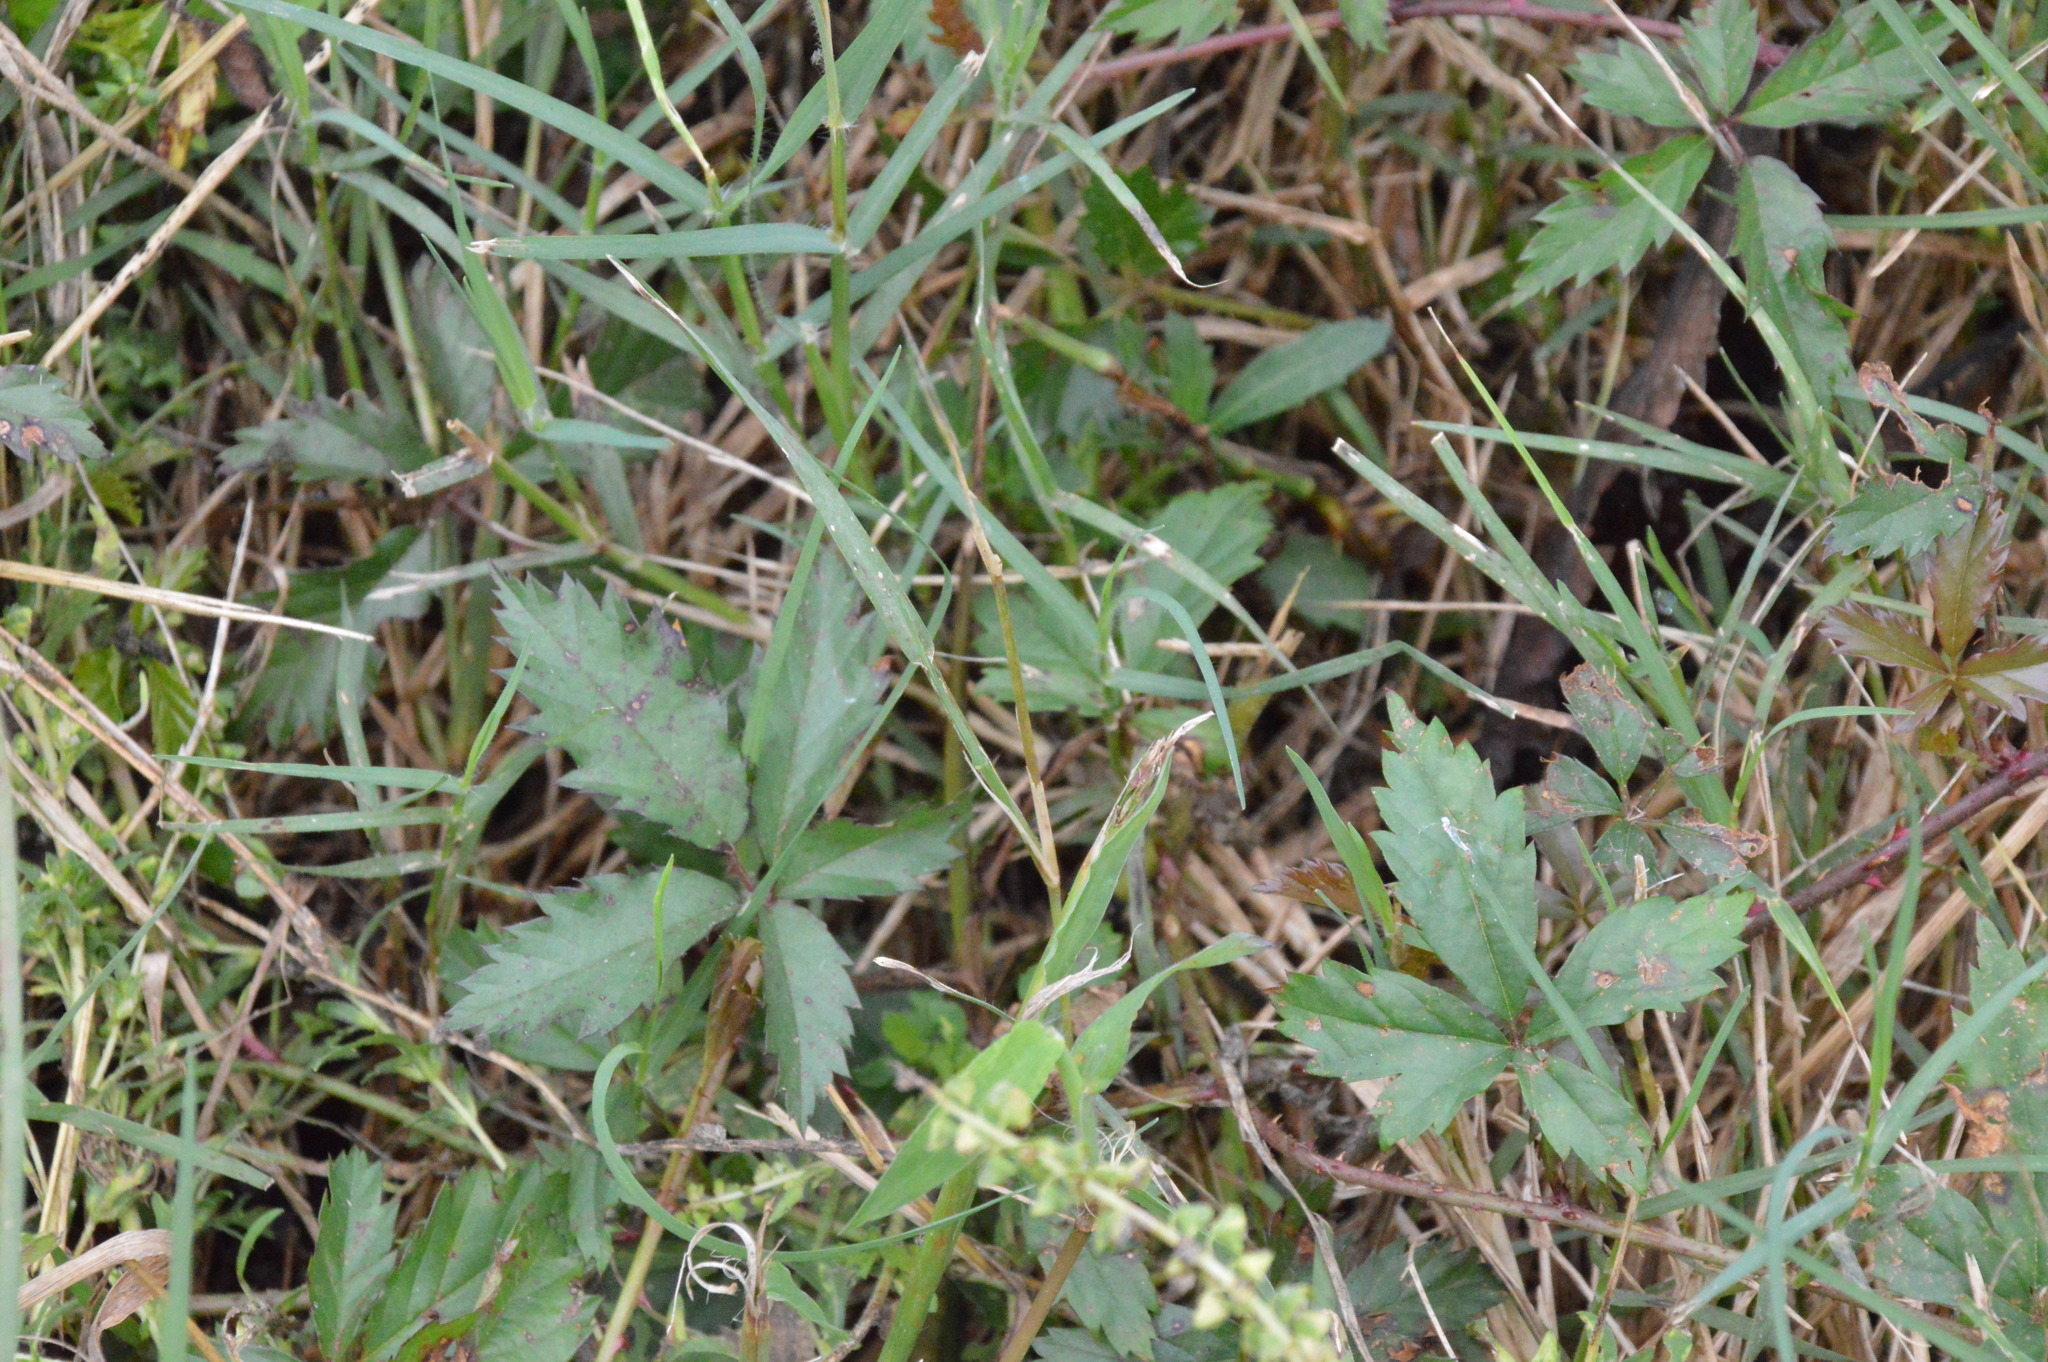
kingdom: Plantae
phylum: Tracheophyta
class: Magnoliopsida
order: Rosales
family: Rosaceae
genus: Rubus
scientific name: Rubus trivialis
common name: Southern dewberry
